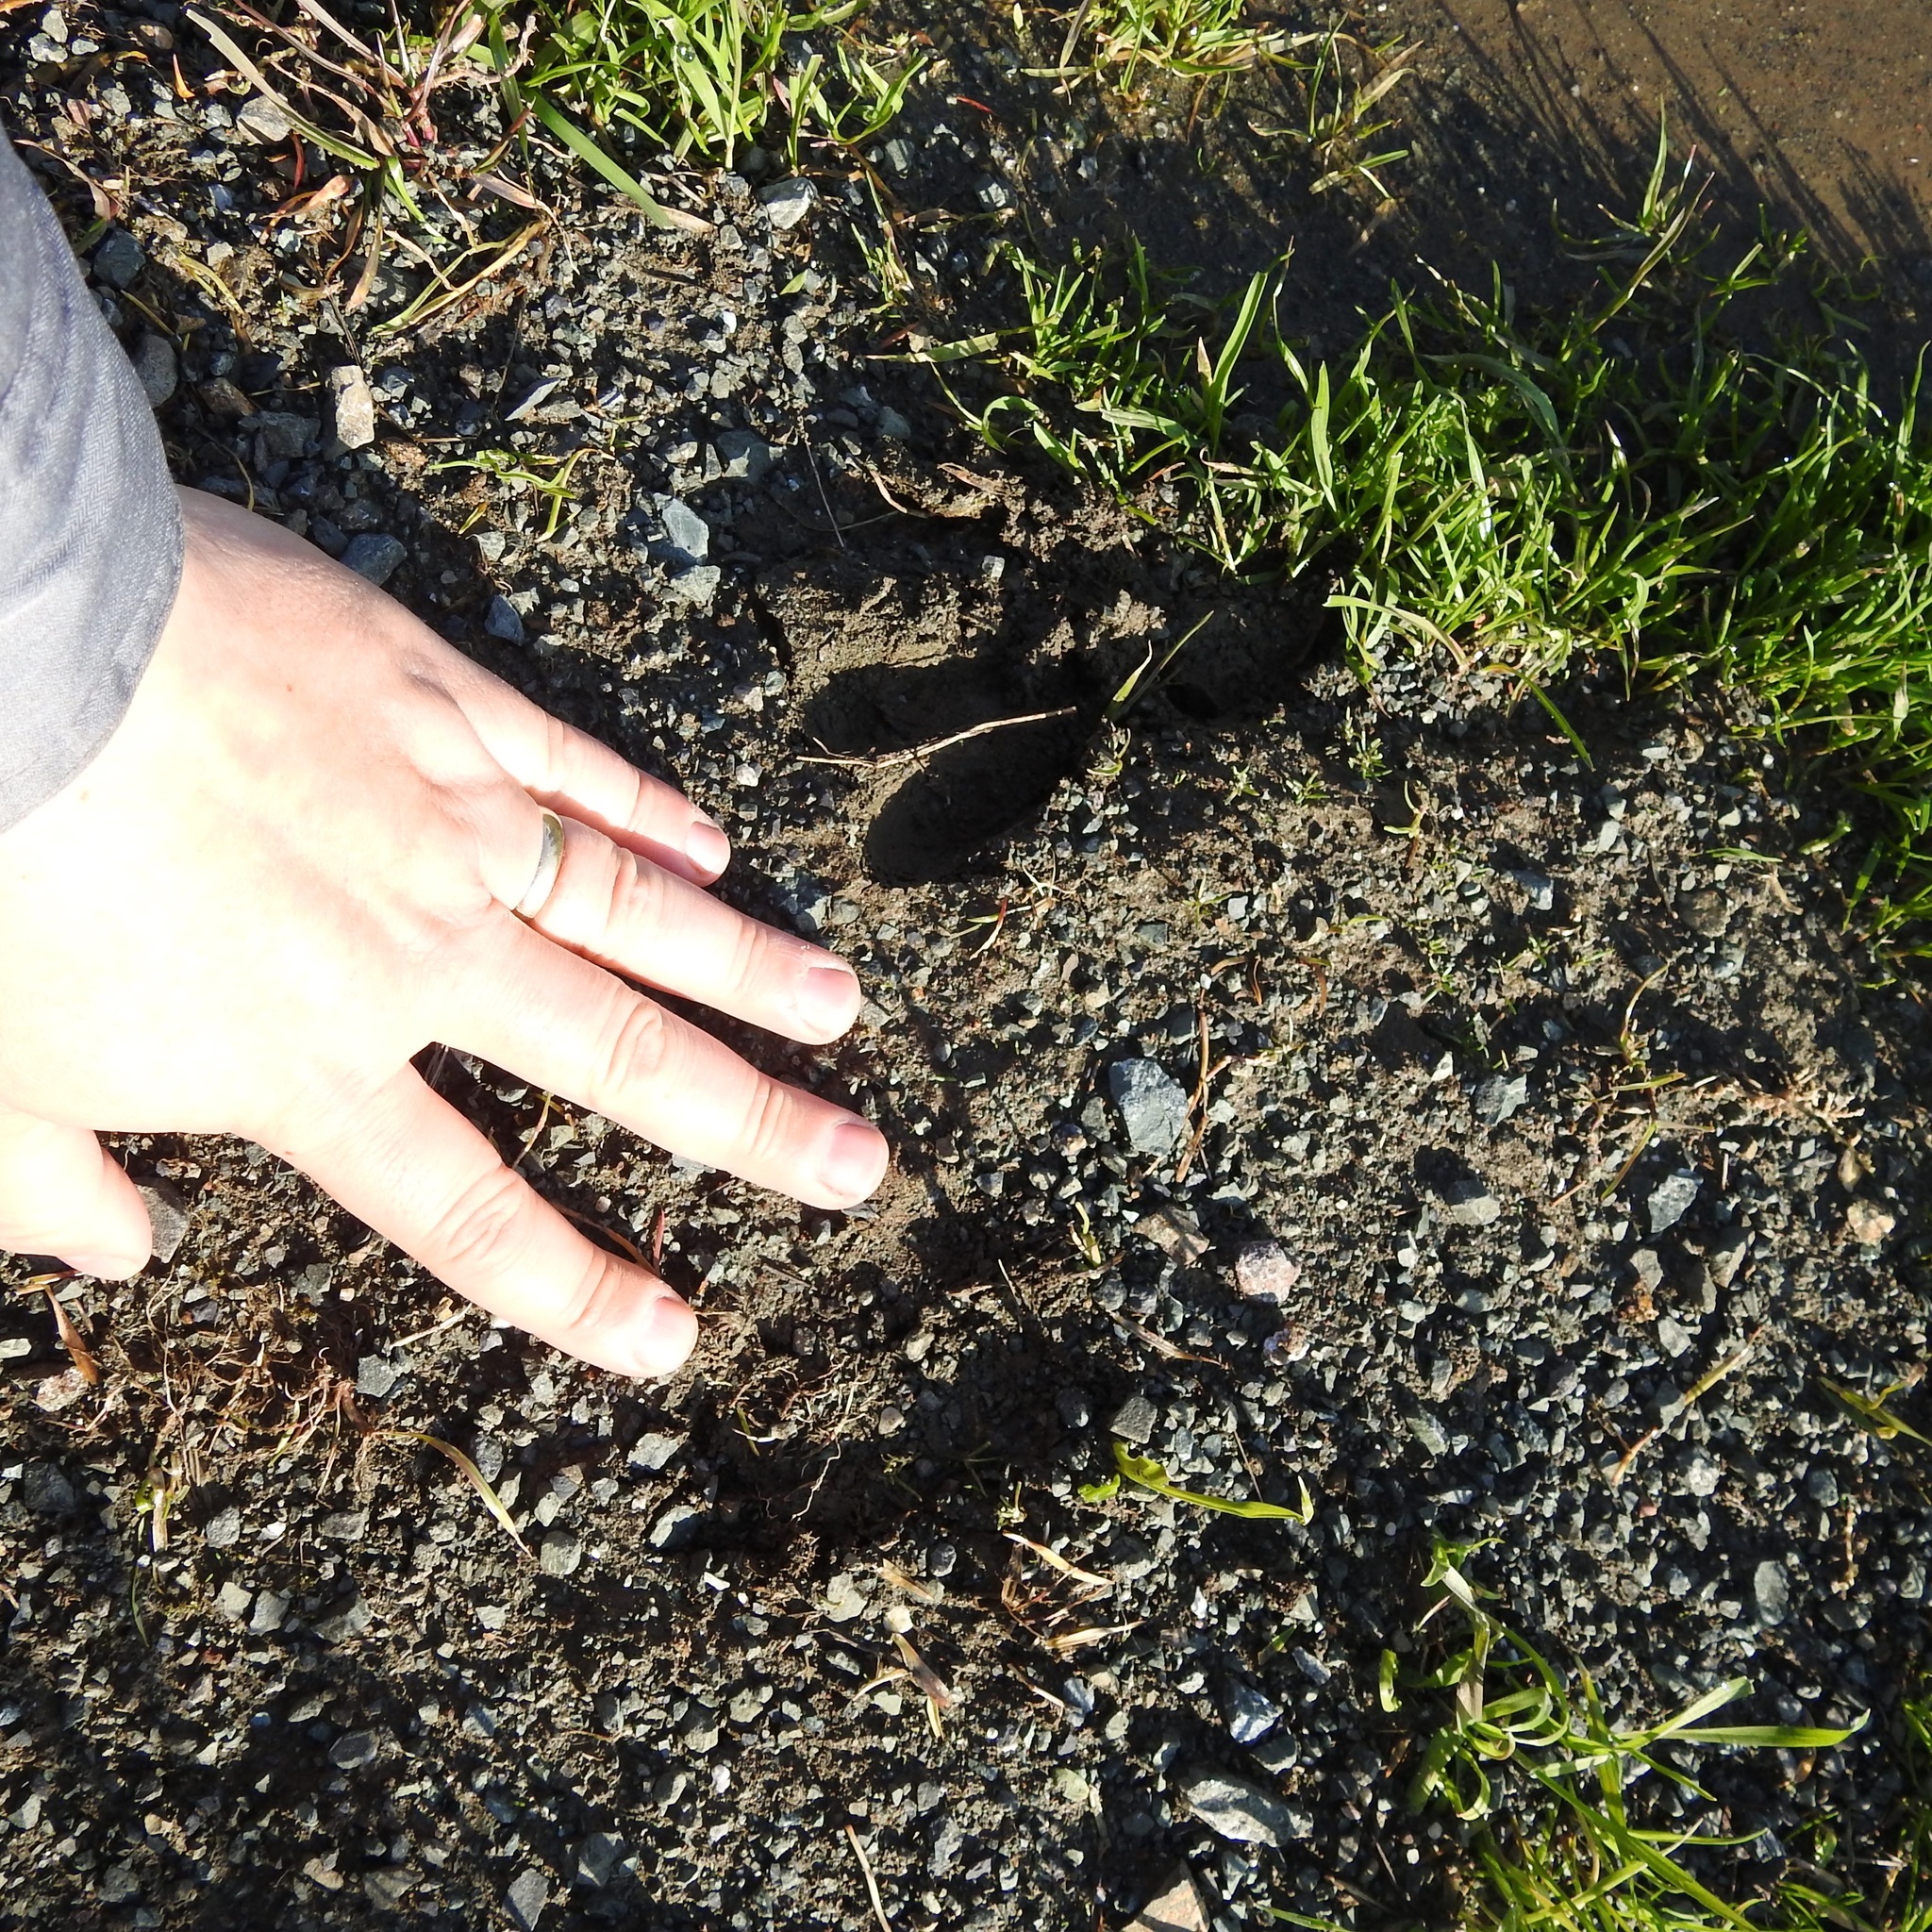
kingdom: Animalia
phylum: Chordata
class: Mammalia
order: Artiodactyla
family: Cervidae
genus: Odocoileus
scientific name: Odocoileus hemionus
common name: Mule deer
